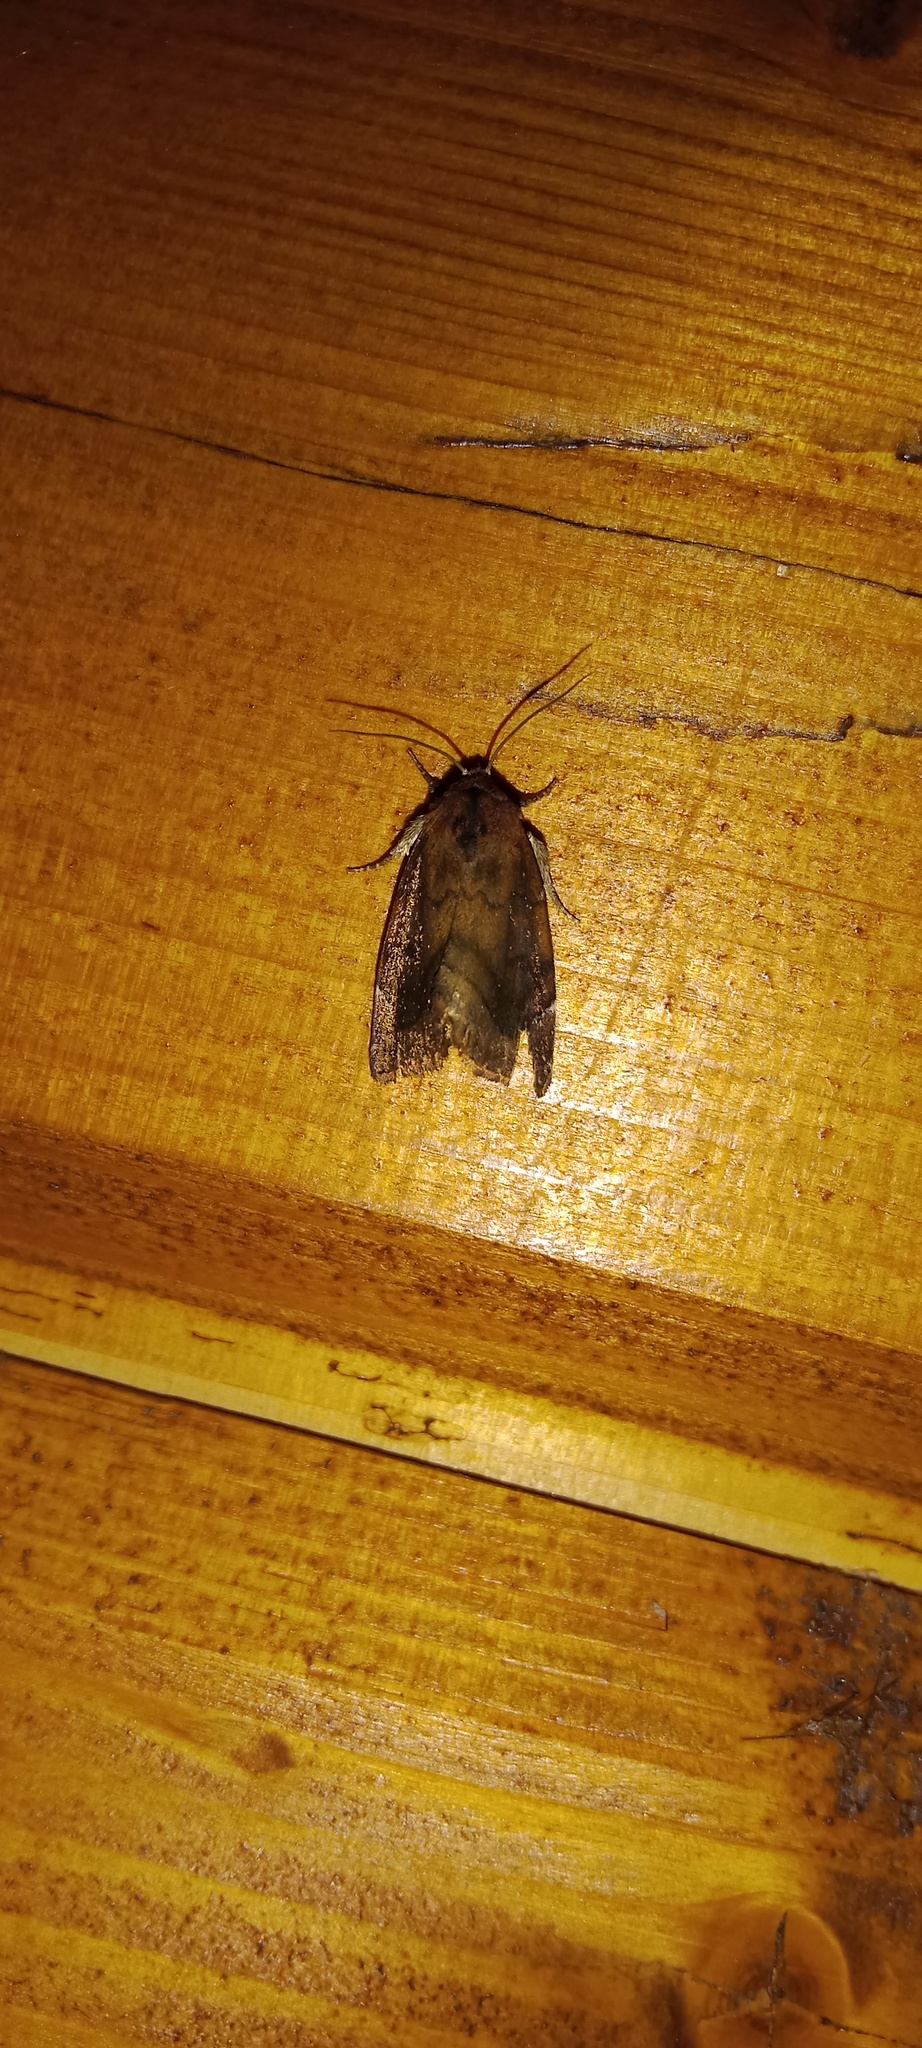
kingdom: Animalia
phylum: Arthropoda
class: Insecta
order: Lepidoptera
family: Noctuidae
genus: Cosmia
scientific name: Cosmia pyralina
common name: Lunar-spotted pinion
